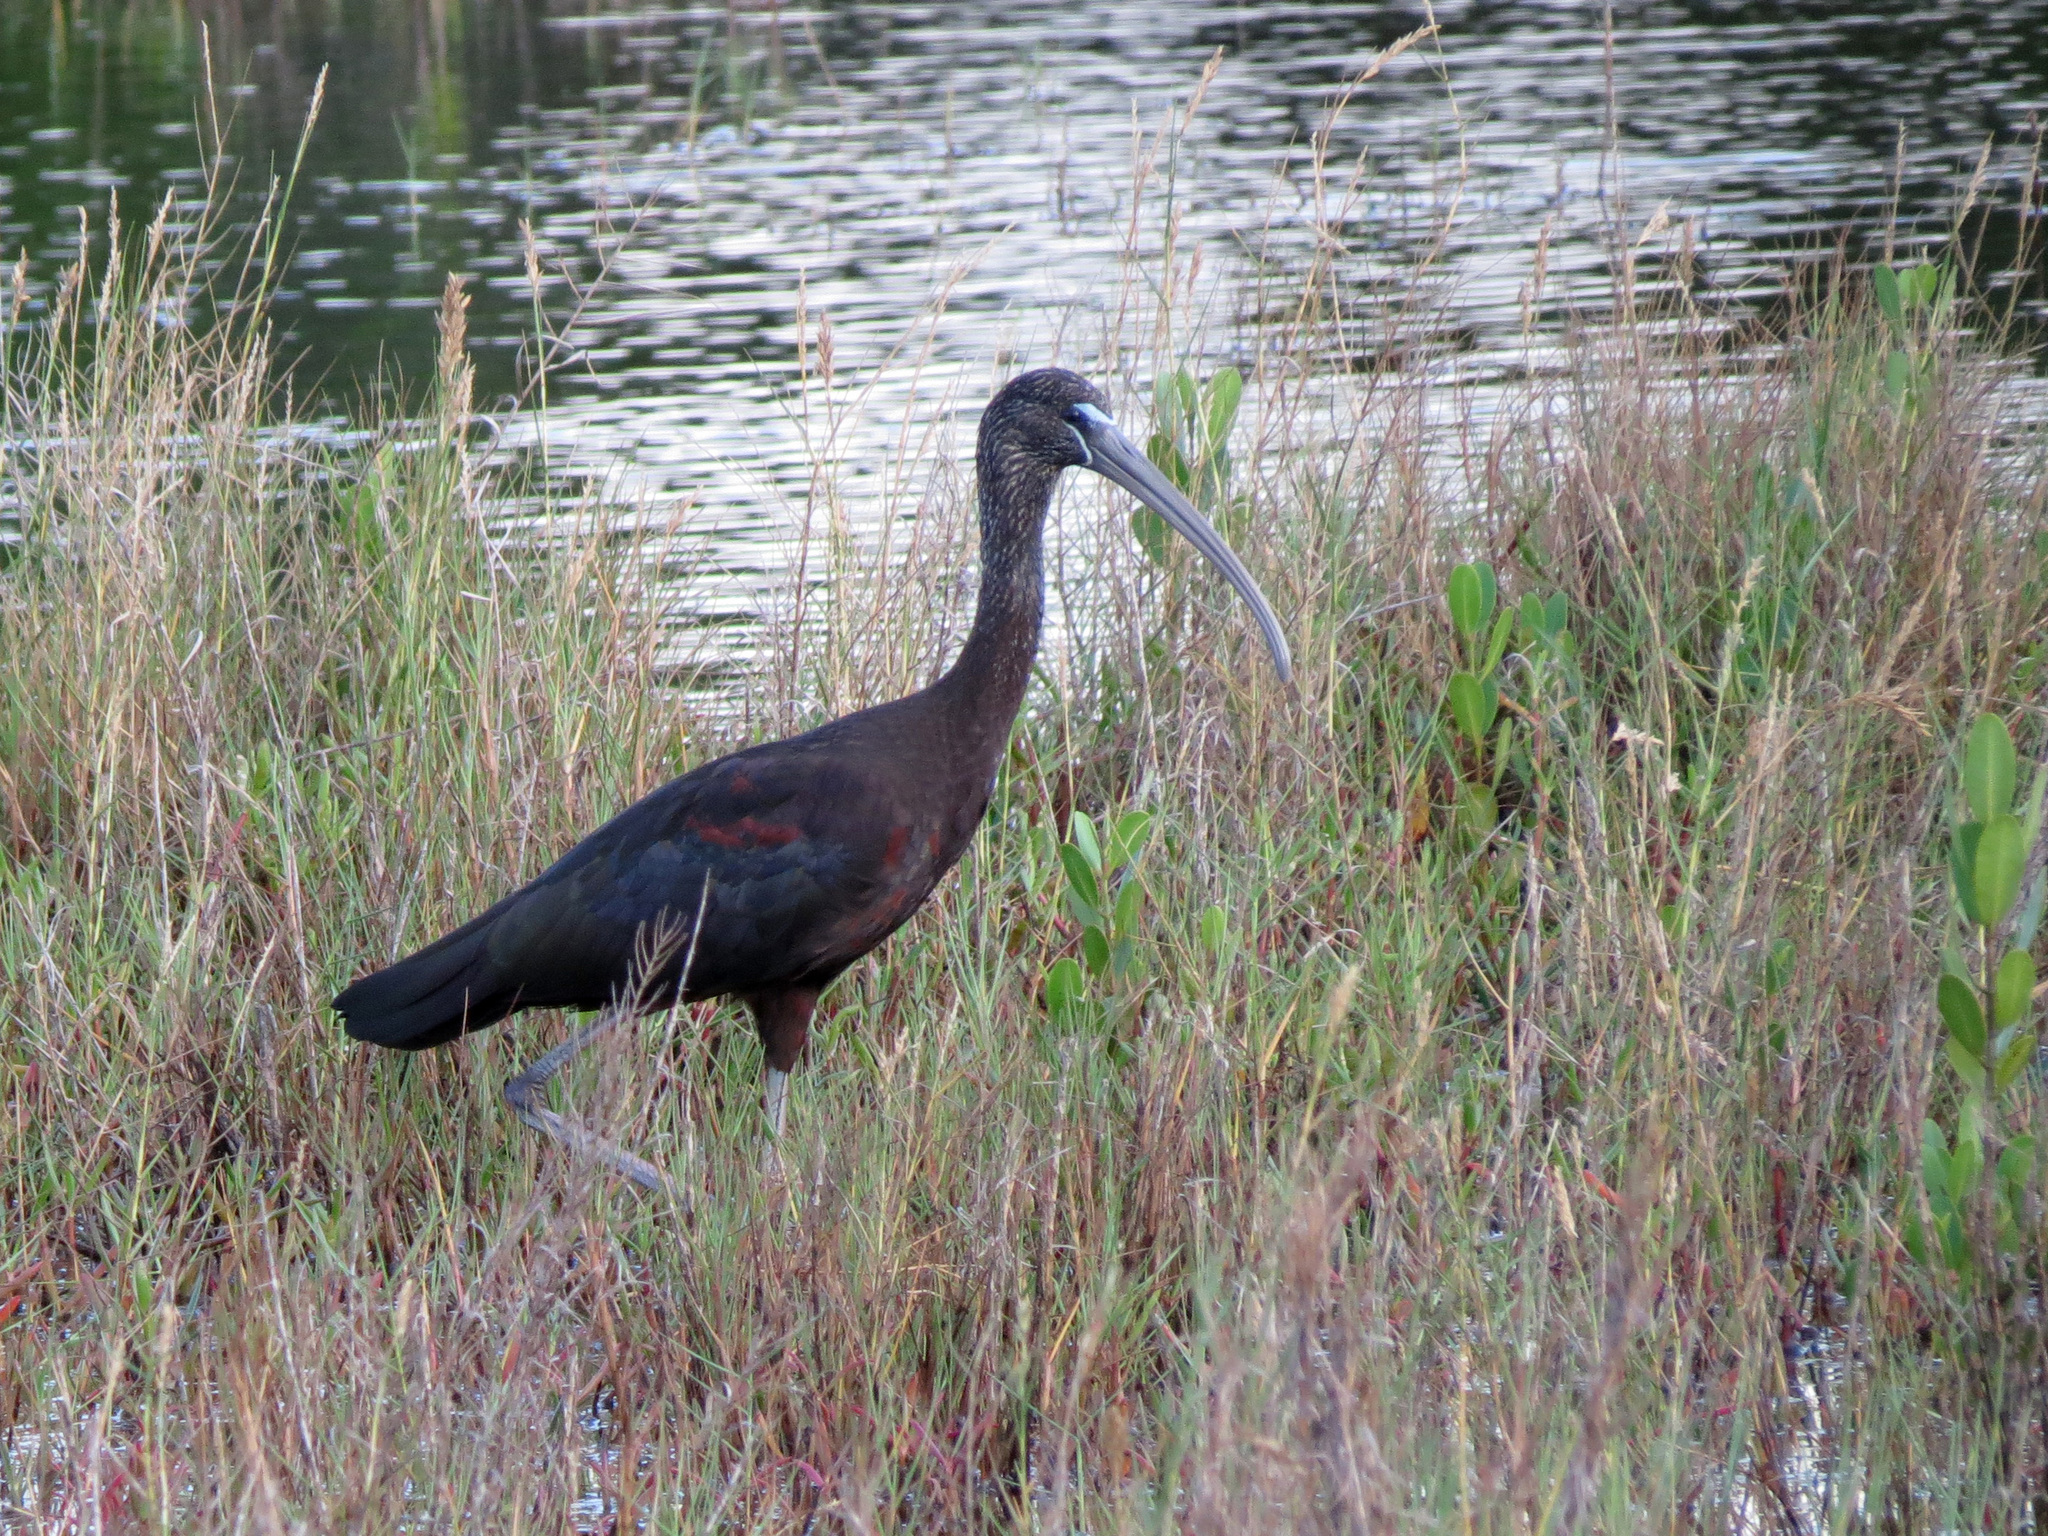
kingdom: Animalia
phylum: Chordata
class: Aves
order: Pelecaniformes
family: Threskiornithidae
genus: Plegadis
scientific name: Plegadis falcinellus
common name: Glossy ibis
